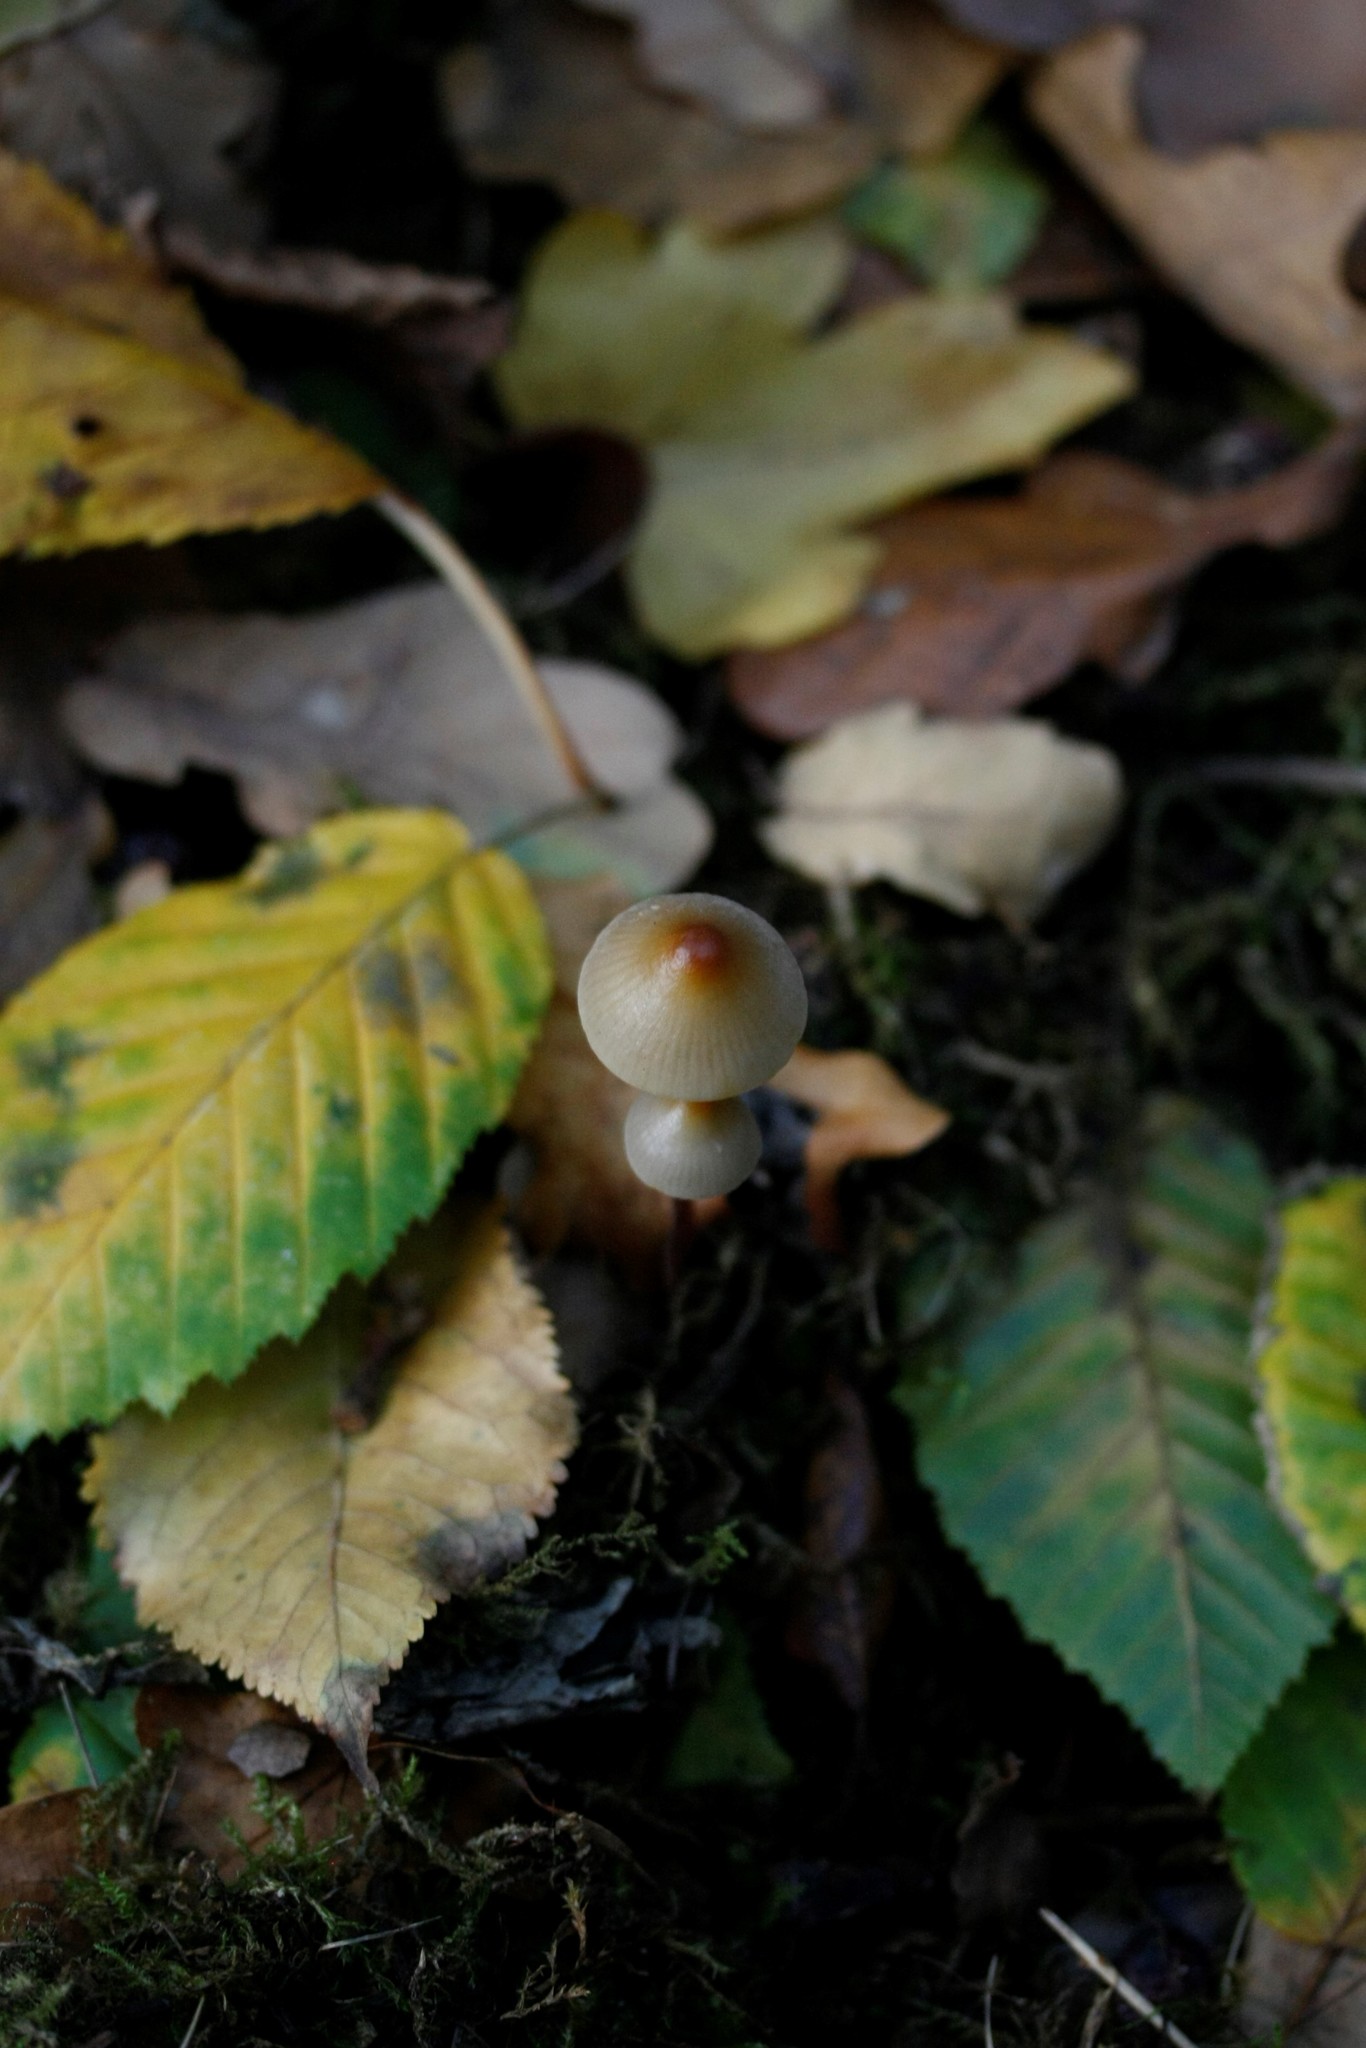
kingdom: Fungi
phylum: Basidiomycota
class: Agaricomycetes
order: Agaricales
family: Mycenaceae
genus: Mycena
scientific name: Mycena crocata
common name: Saffrondrop bonnet
